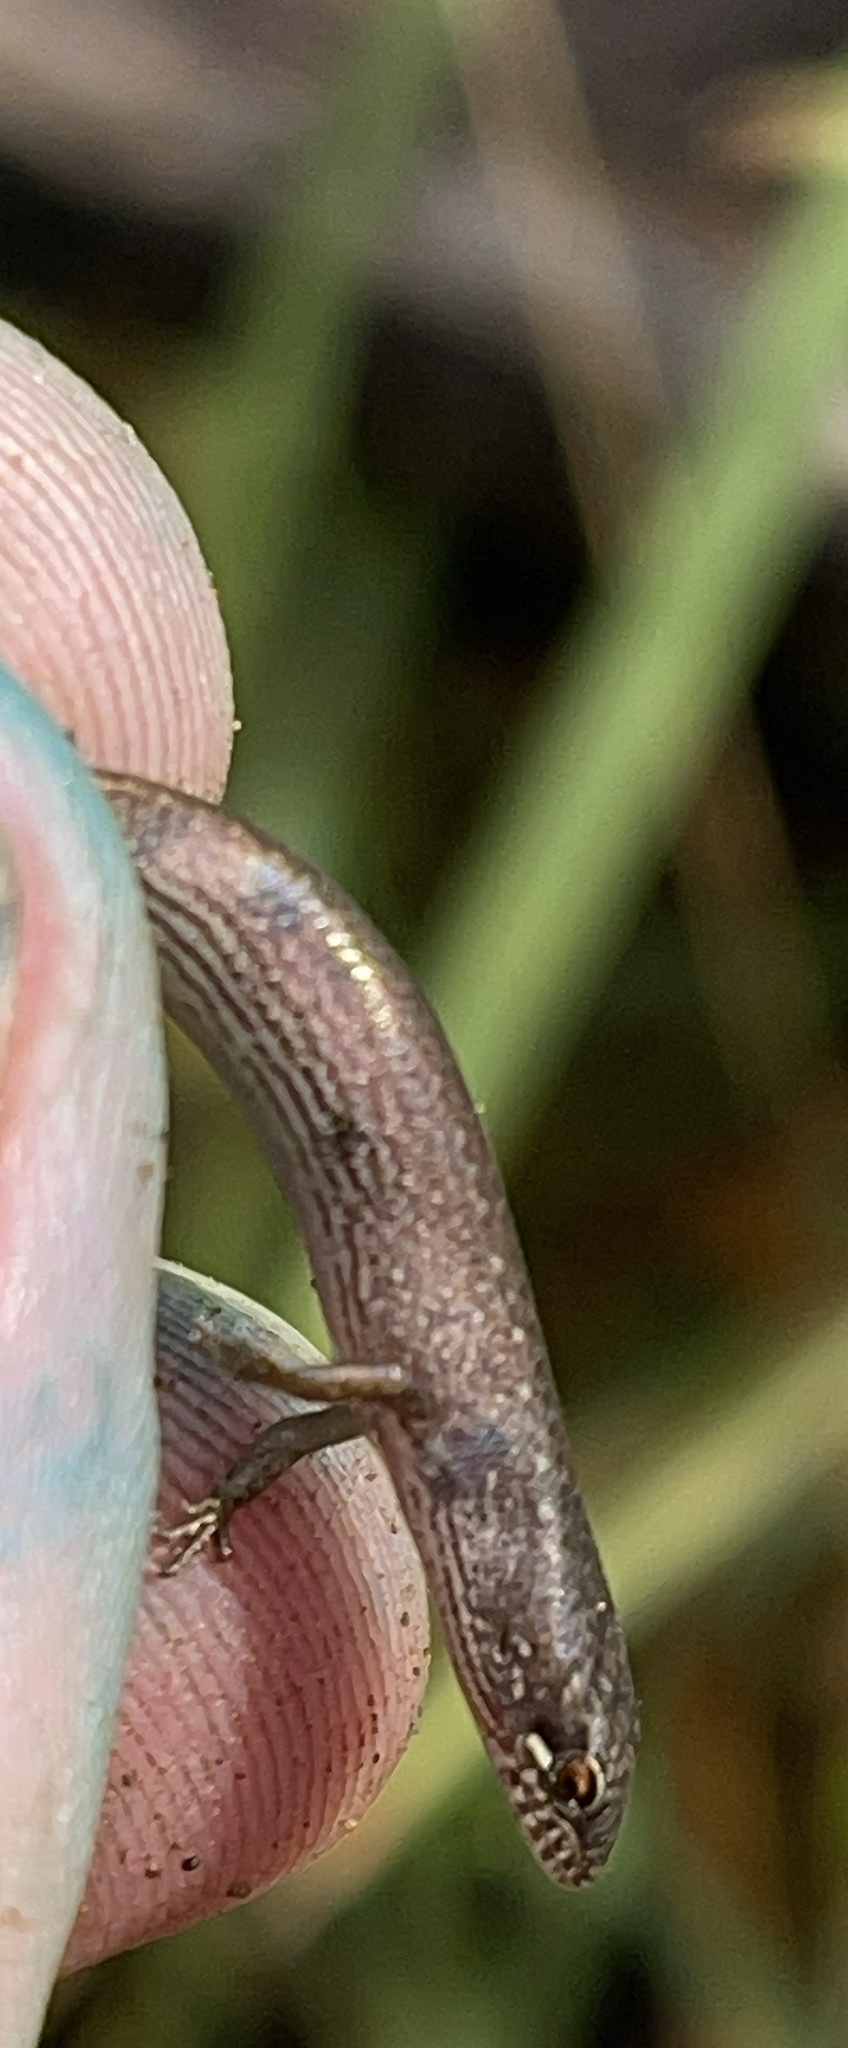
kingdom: Animalia
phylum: Chordata
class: Squamata
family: Scincidae
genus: Saproscincus
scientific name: Saproscincus mustelinus
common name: Southern weasel skink
